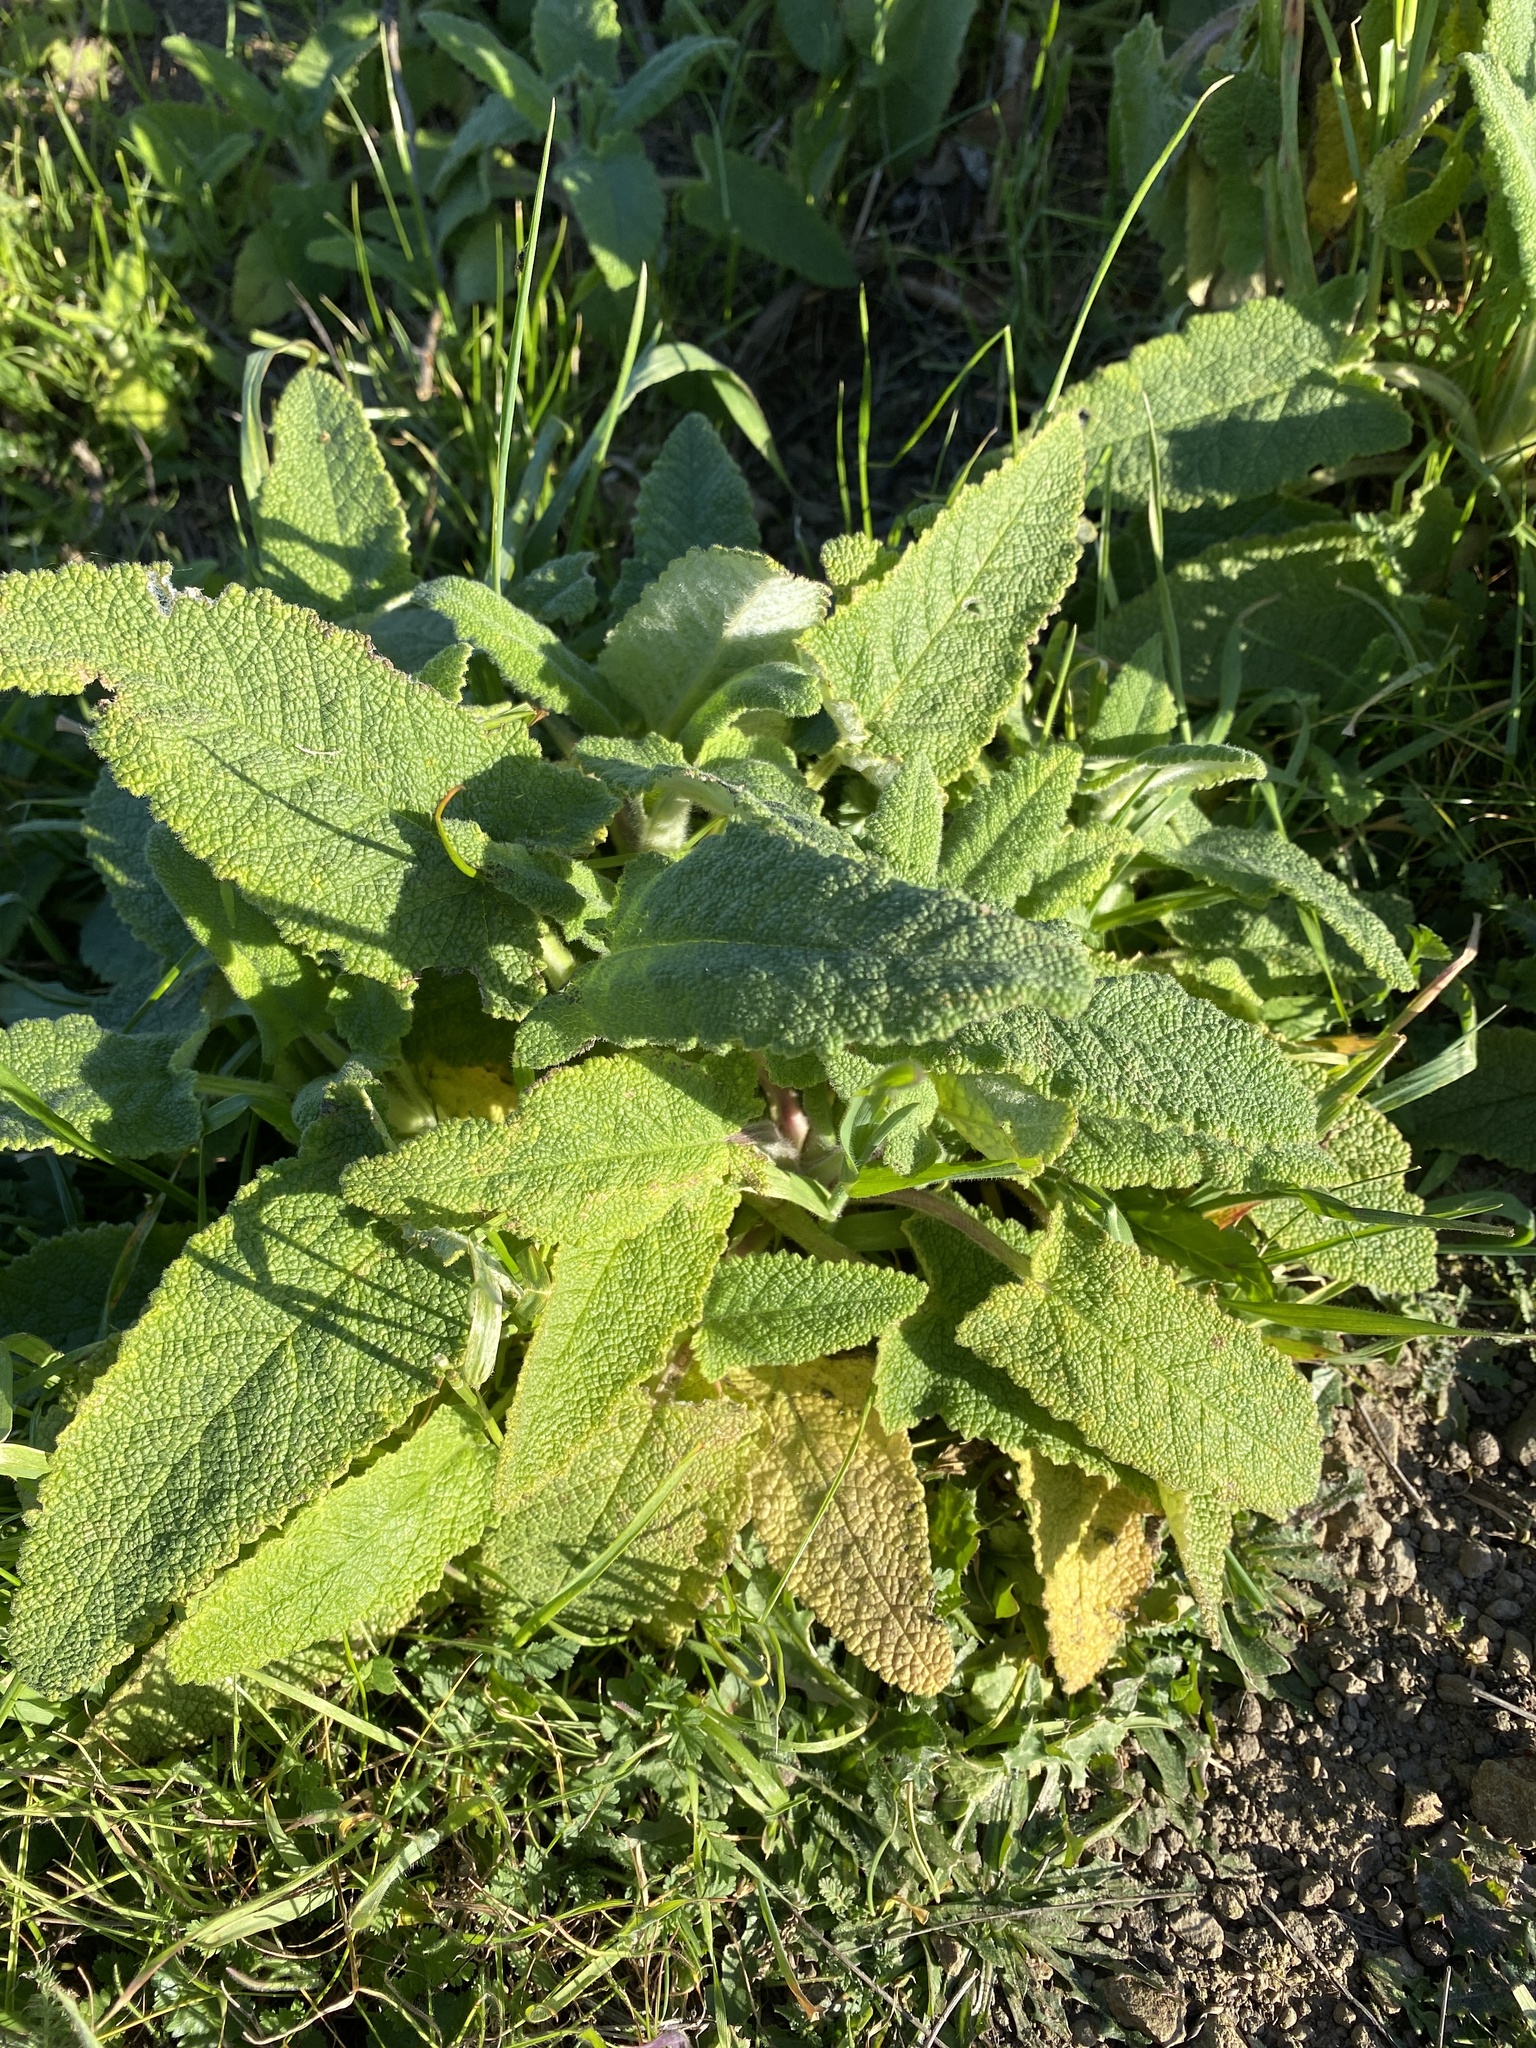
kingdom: Plantae
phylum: Tracheophyta
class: Magnoliopsida
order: Lamiales
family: Lamiaceae
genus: Salvia
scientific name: Salvia spathacea
